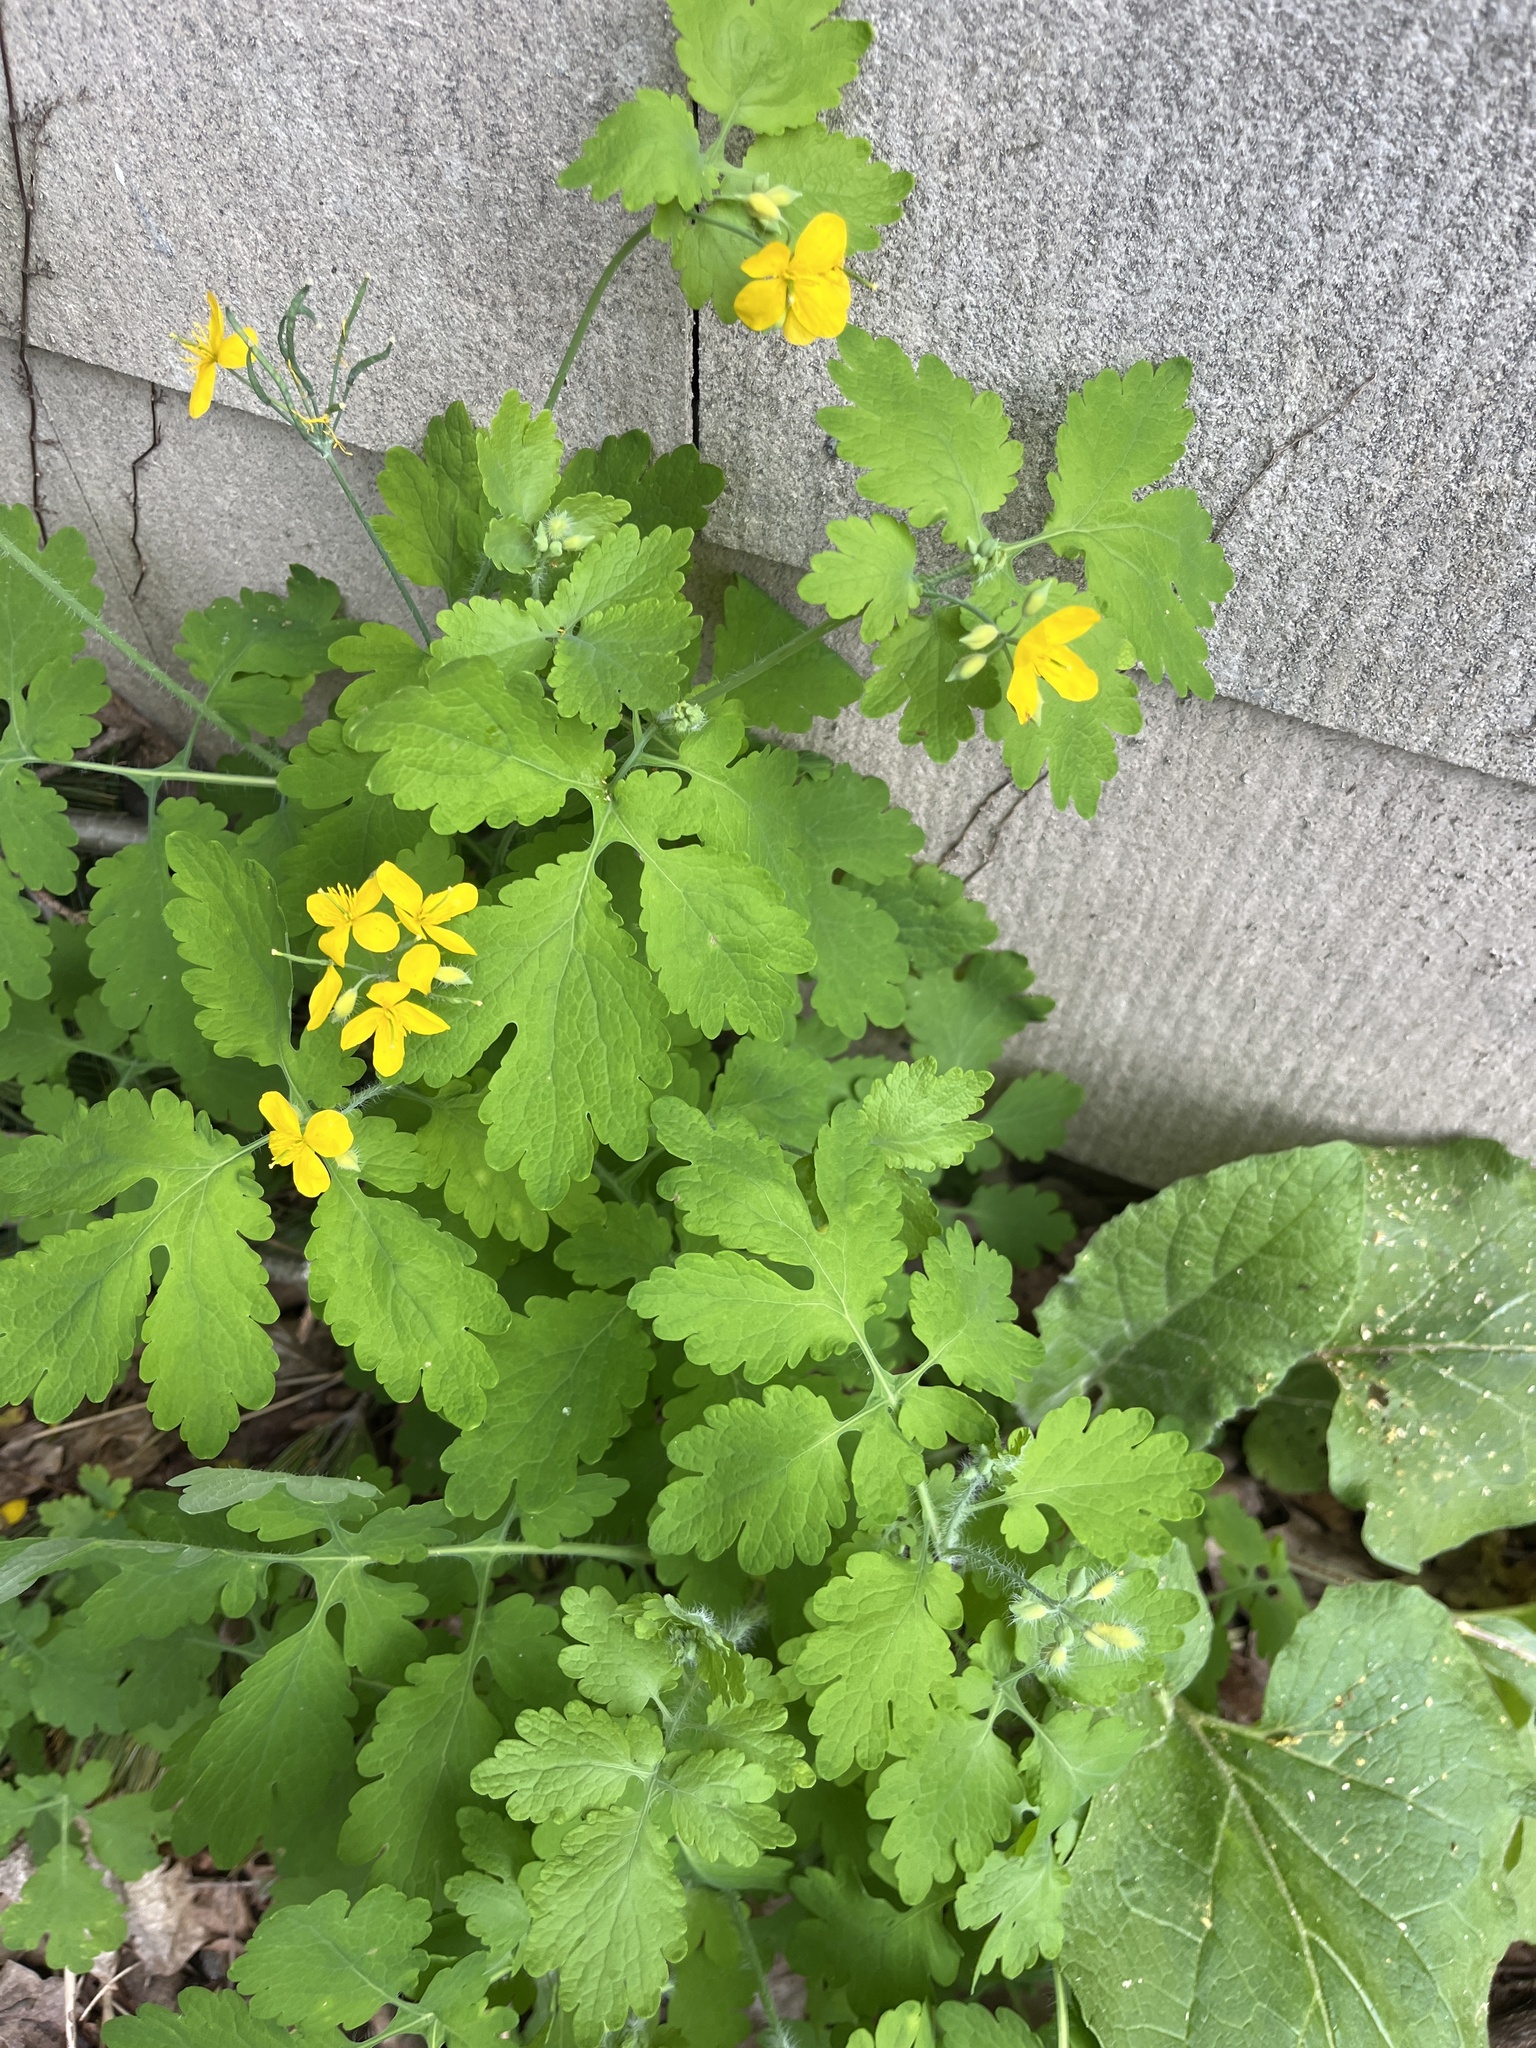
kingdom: Plantae
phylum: Tracheophyta
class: Magnoliopsida
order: Ranunculales
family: Papaveraceae
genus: Chelidonium
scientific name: Chelidonium majus
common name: Greater celandine
